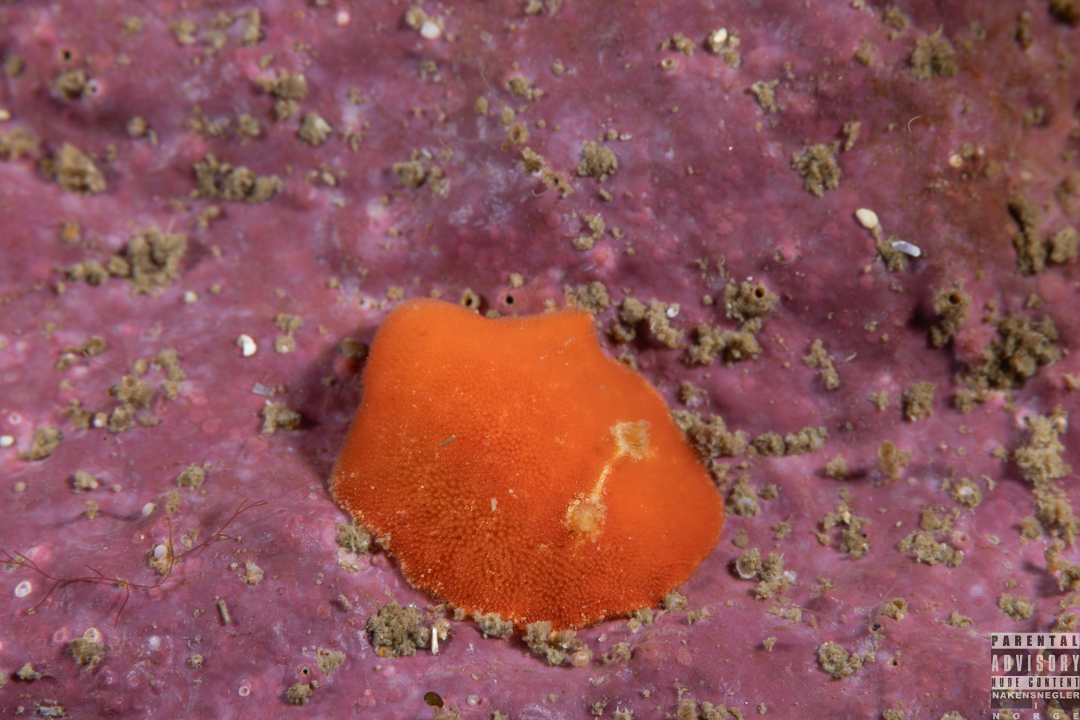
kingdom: Animalia
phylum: Mollusca
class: Gastropoda
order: Nudibranchia
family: Discodorididae
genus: Rostanga
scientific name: Rostanga rubra
